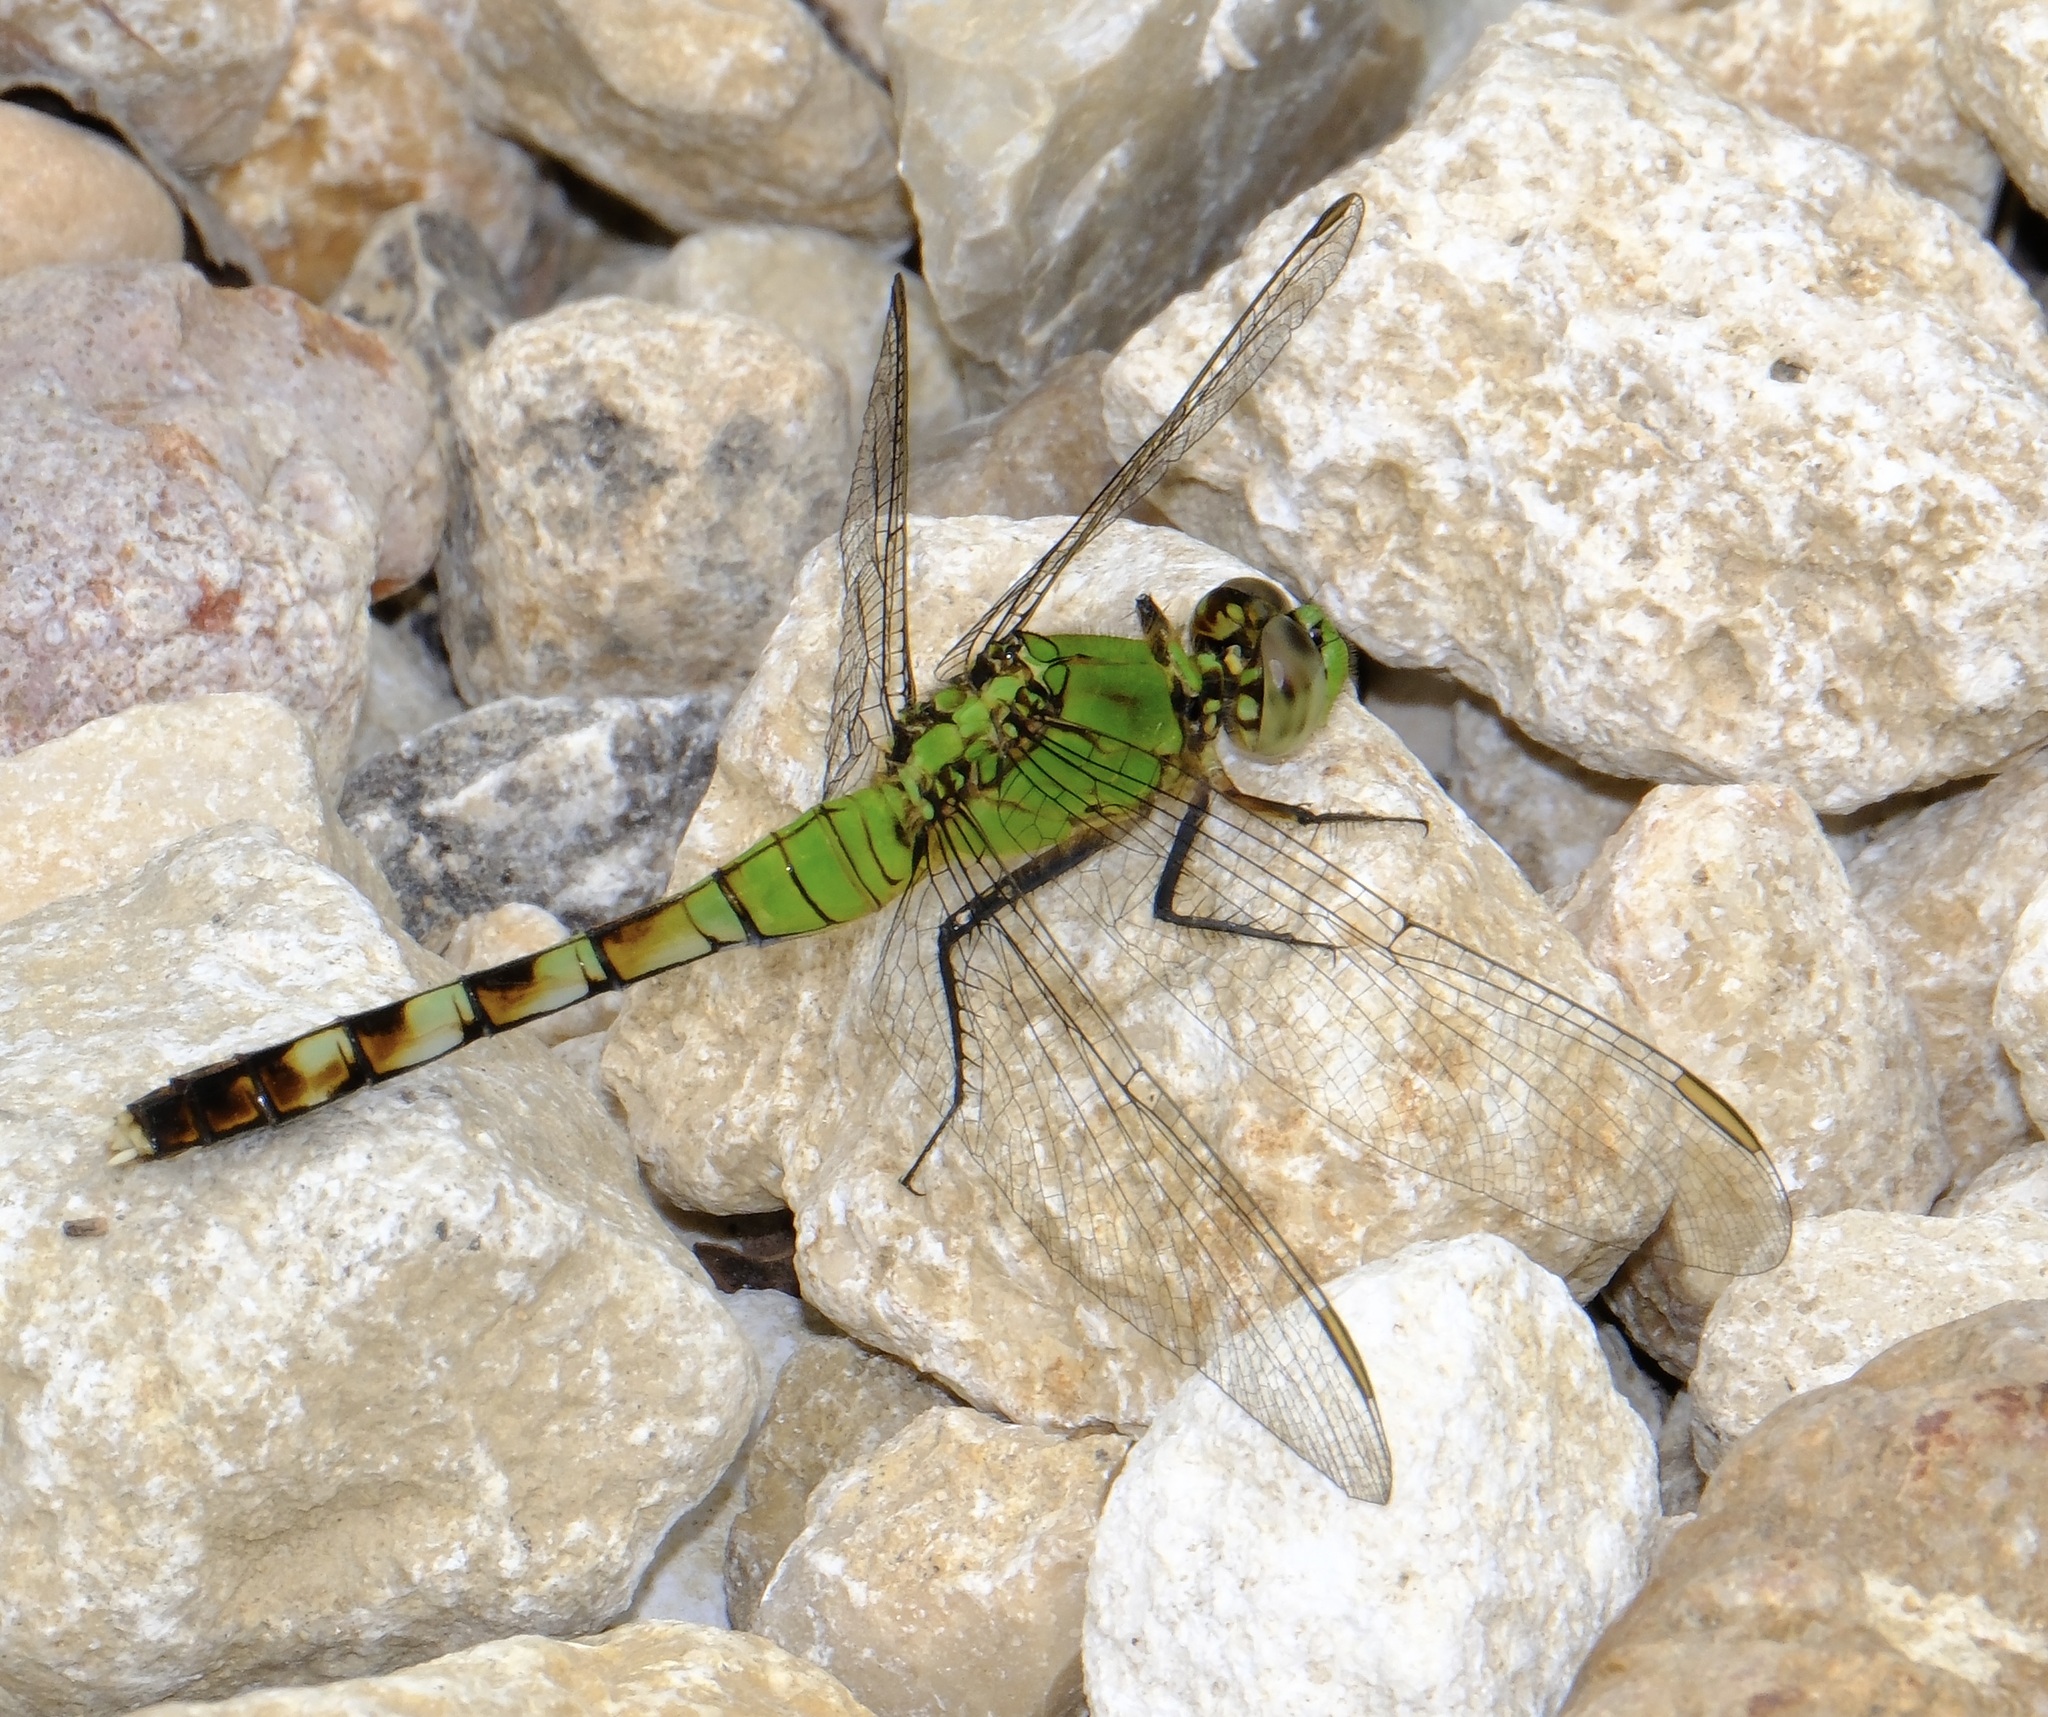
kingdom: Animalia
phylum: Arthropoda
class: Insecta
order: Odonata
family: Libellulidae
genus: Erythemis
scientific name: Erythemis simplicicollis
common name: Eastern pondhawk
